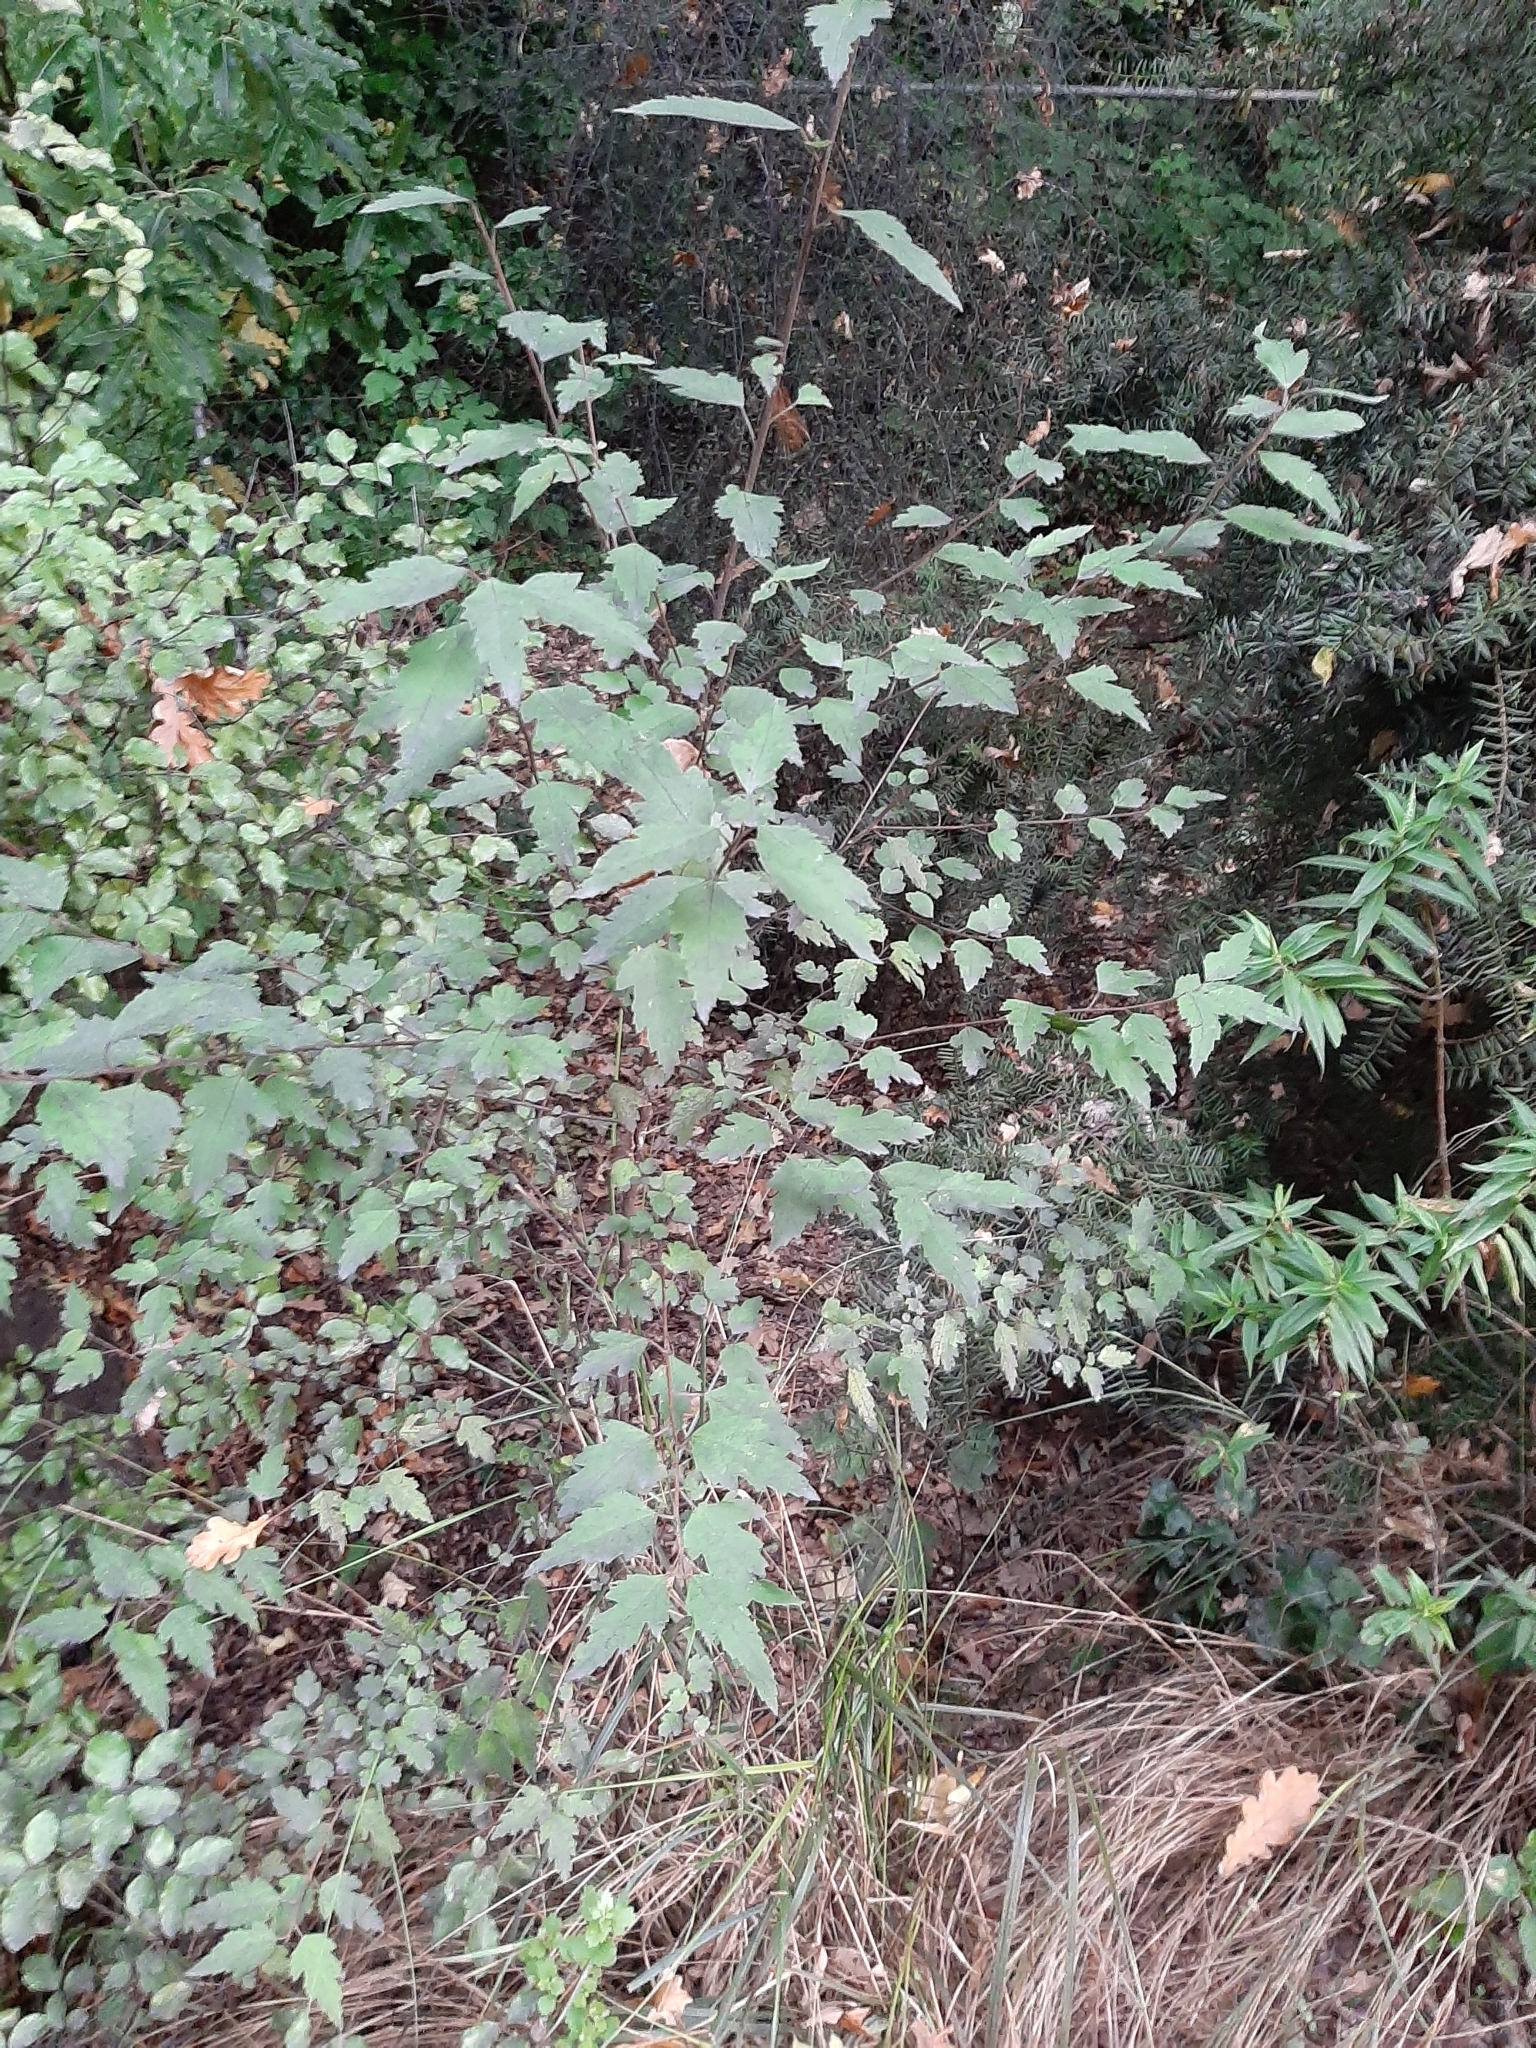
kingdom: Plantae
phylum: Tracheophyta
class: Magnoliopsida
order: Malvales
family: Malvaceae
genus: Hoheria
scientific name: Hoheria sexstylosa
